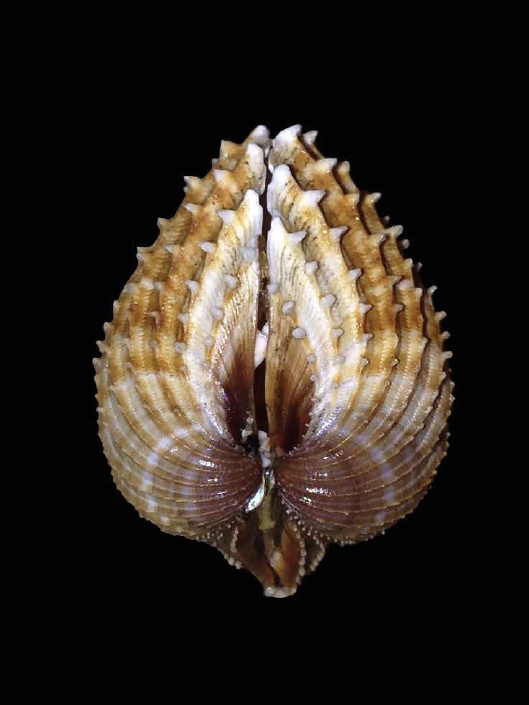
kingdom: Animalia
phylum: Mollusca
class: Bivalvia
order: Cardiida
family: Cardiidae
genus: Acanthocardia
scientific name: Acanthocardia paucicostata
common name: Poorly ribbed cockle
